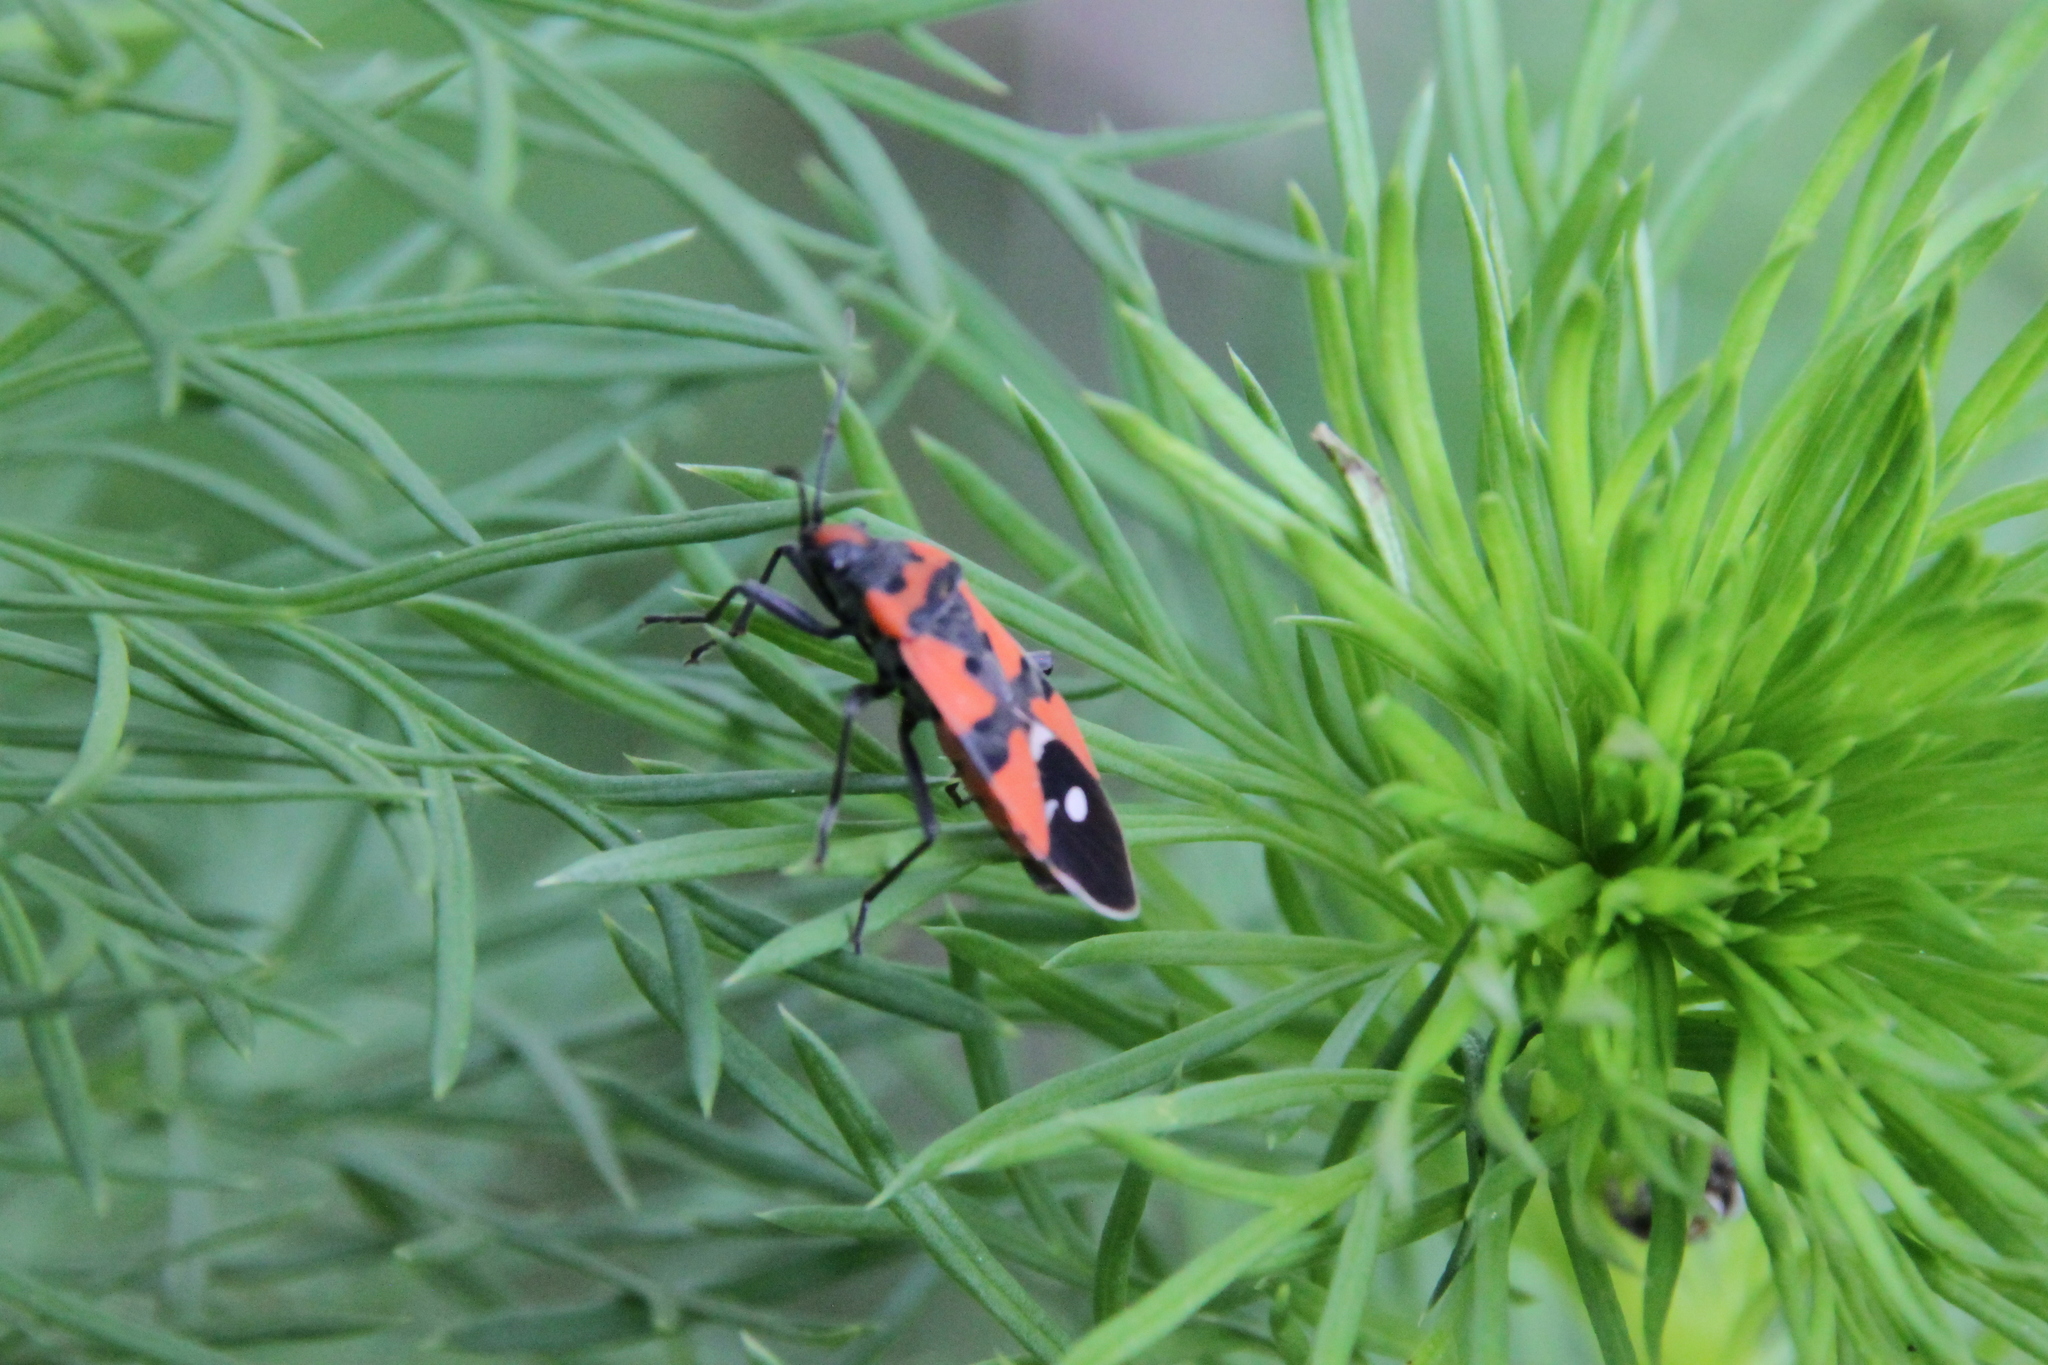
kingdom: Animalia
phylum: Arthropoda
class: Insecta
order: Hemiptera
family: Lygaeidae
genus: Lygaeus
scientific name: Lygaeus equestris
